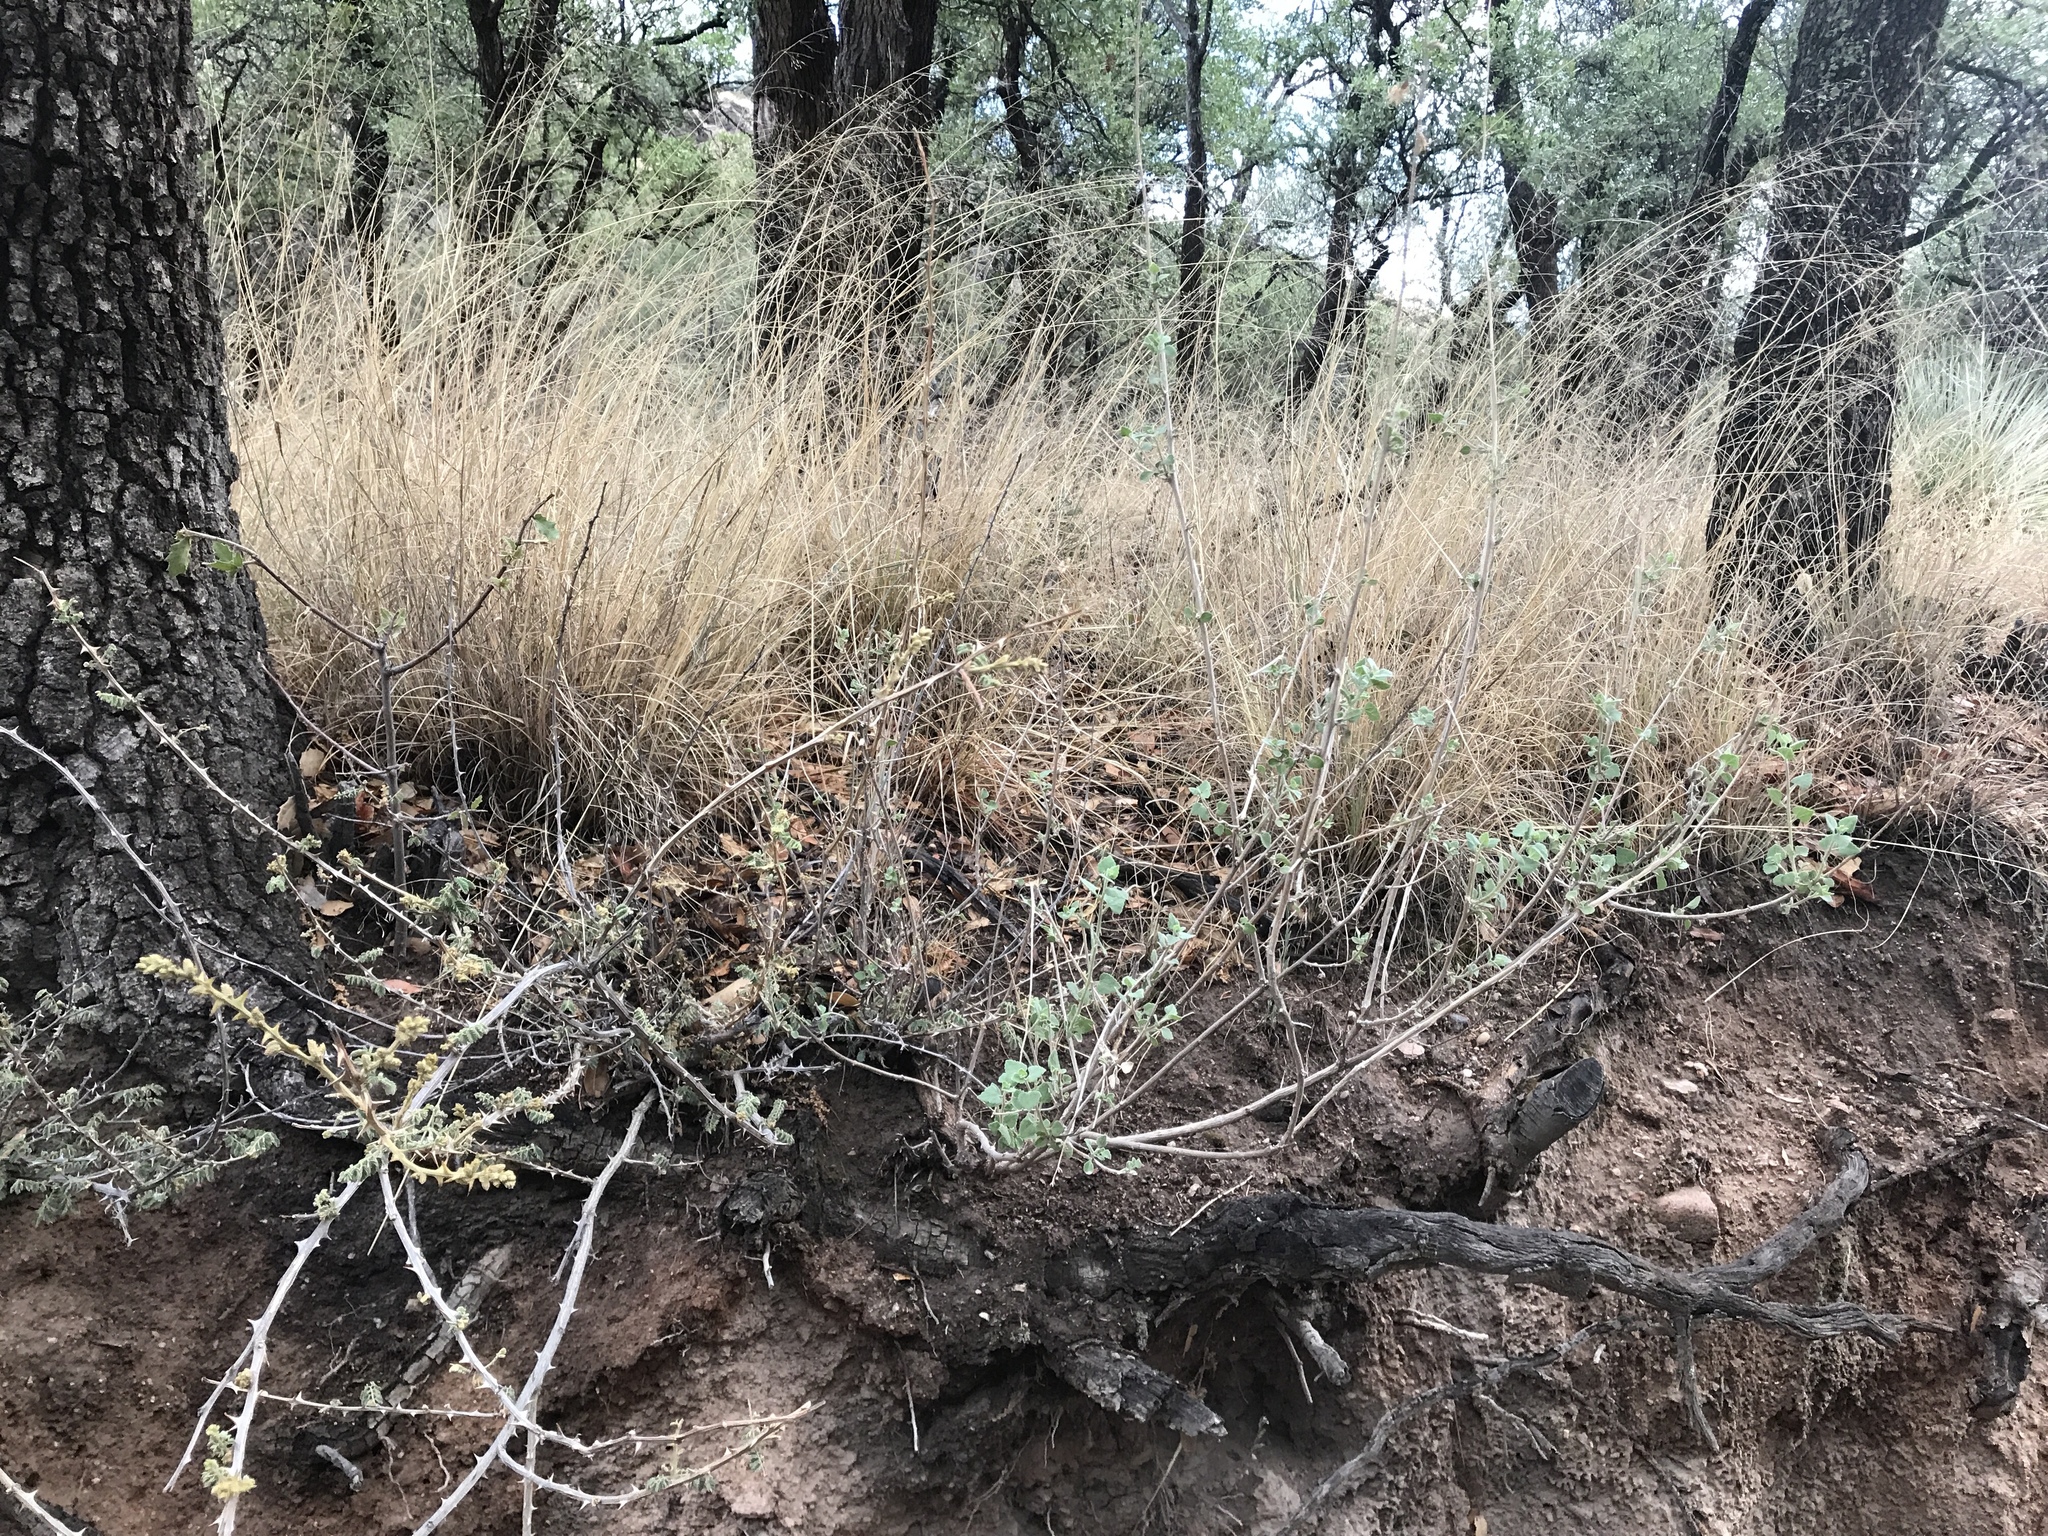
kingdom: Plantae
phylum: Tracheophyta
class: Magnoliopsida
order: Fabales
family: Fabaceae
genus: Mimosa
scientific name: Mimosa biuncifera
